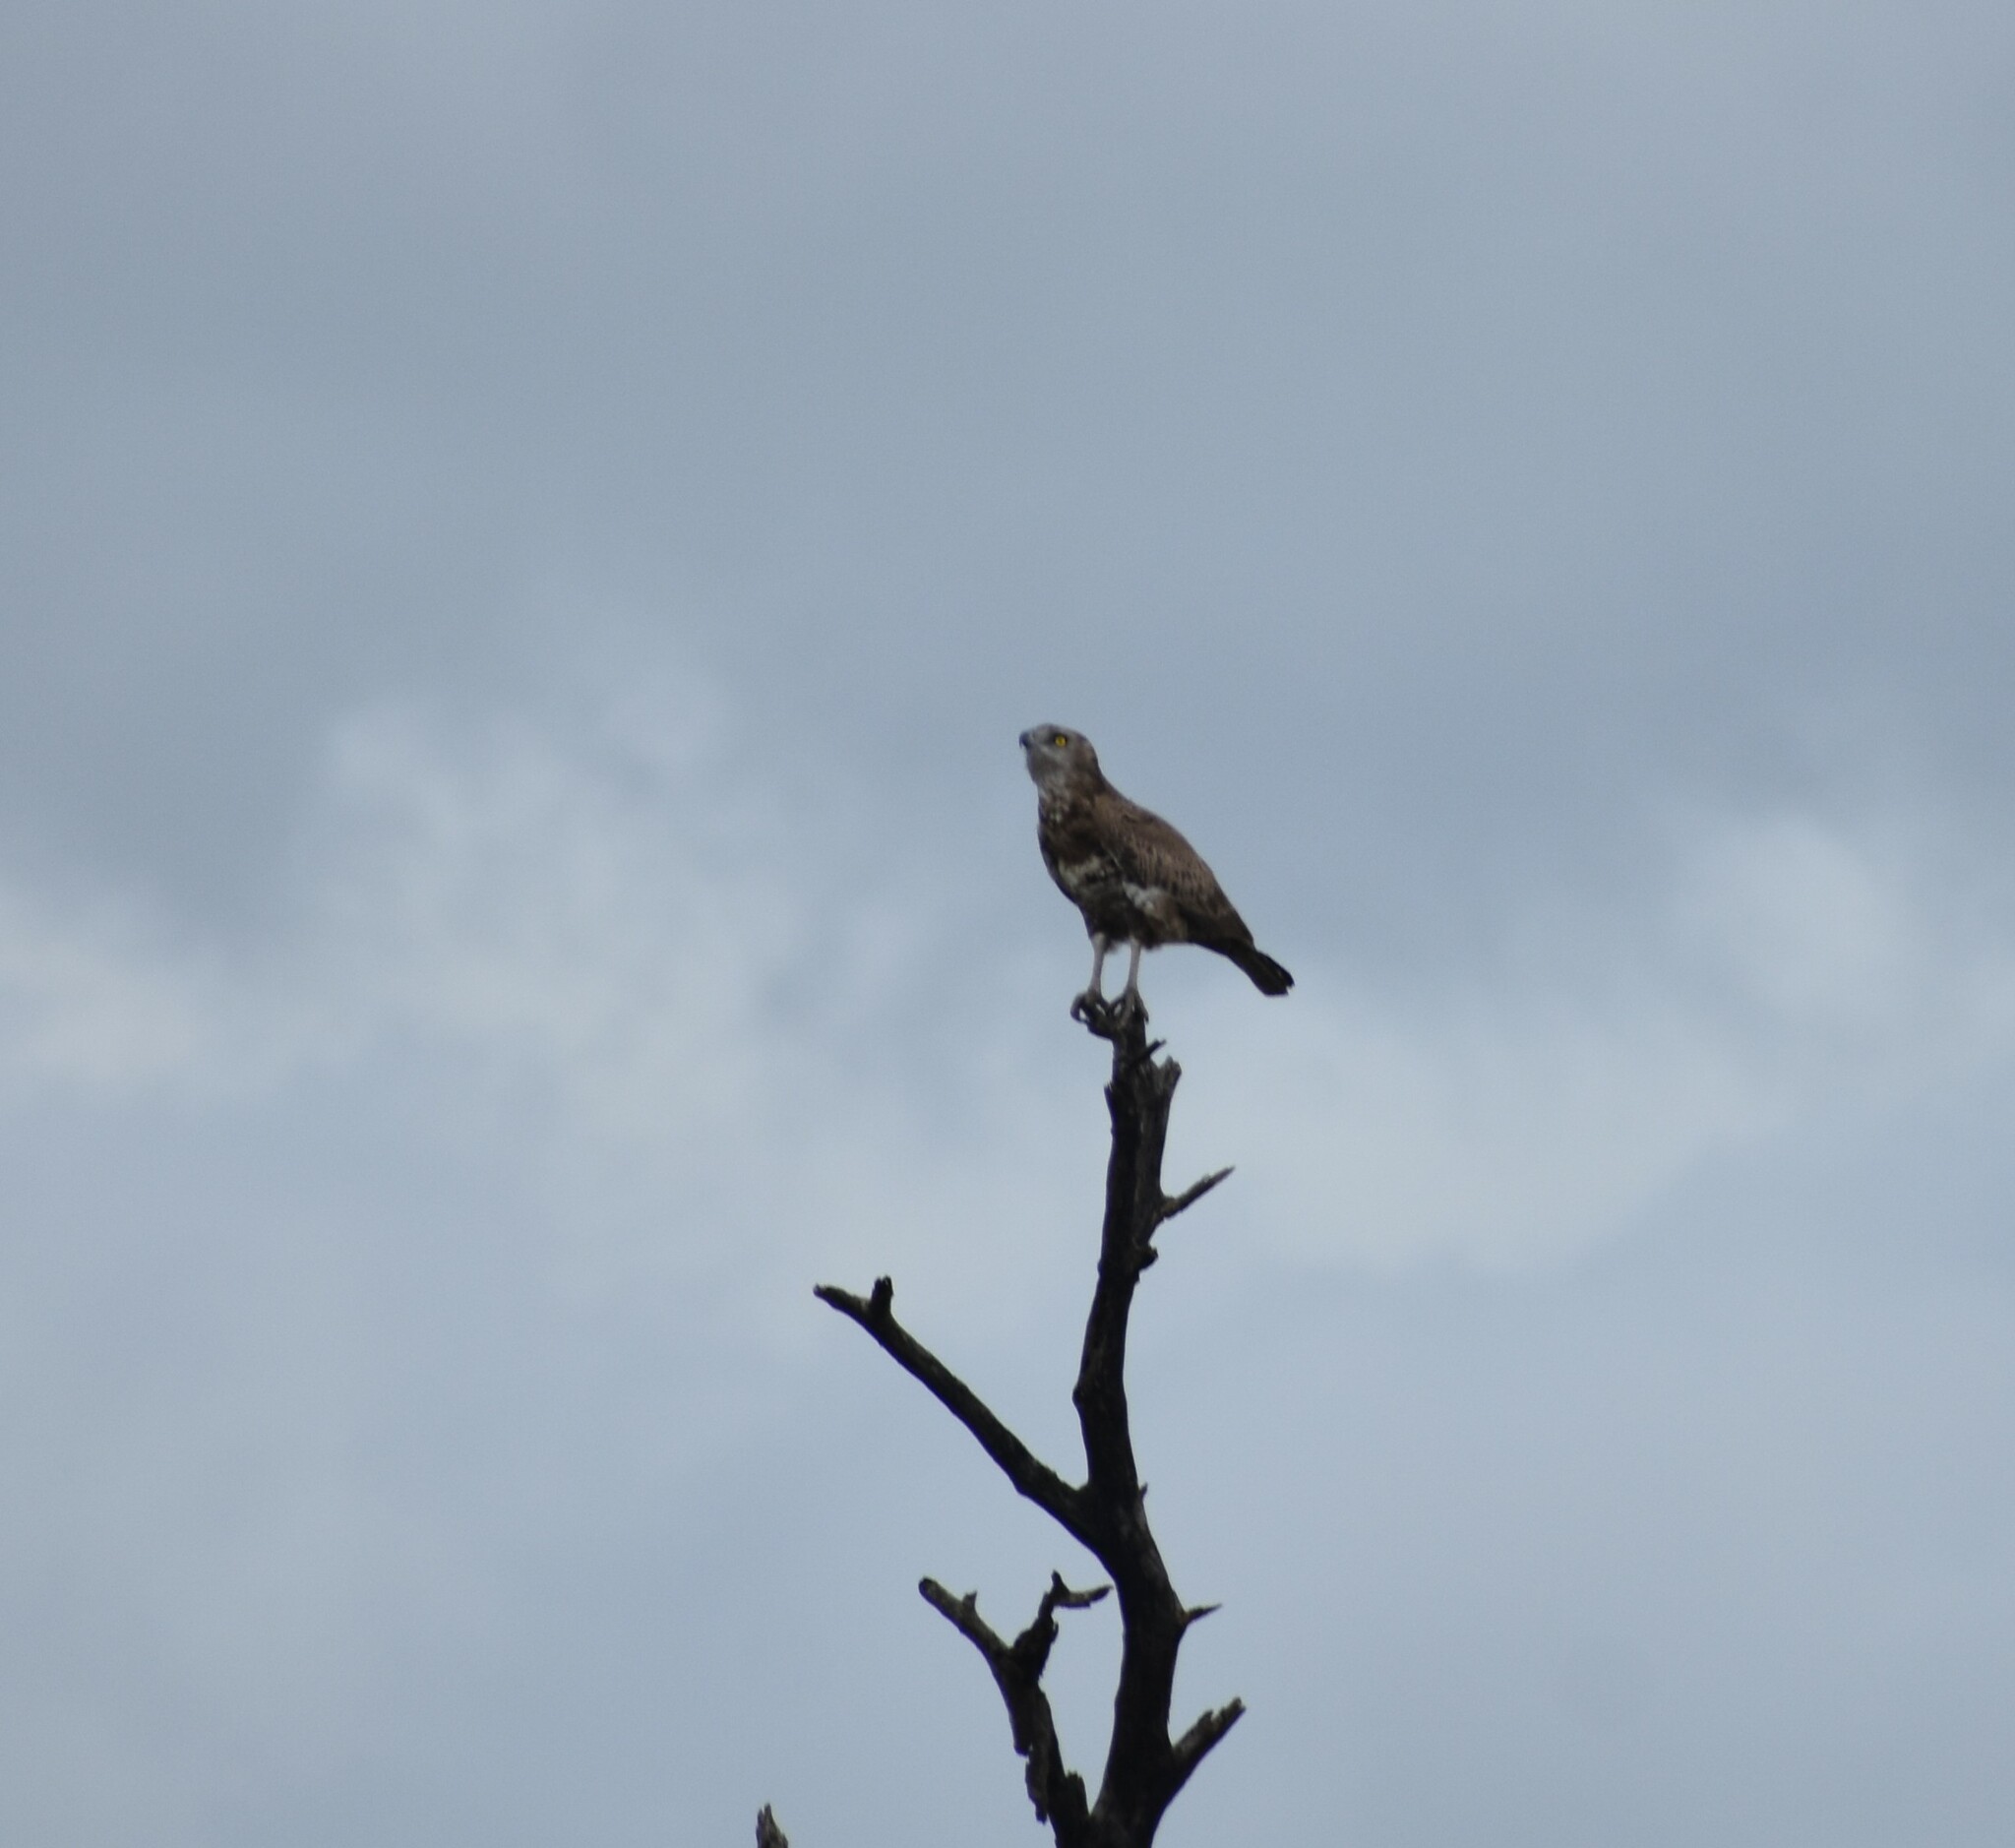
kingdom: Animalia
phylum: Chordata
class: Aves
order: Accipitriformes
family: Accipitridae
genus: Circaetus
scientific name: Circaetus cinereus
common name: Brown snake eagle
